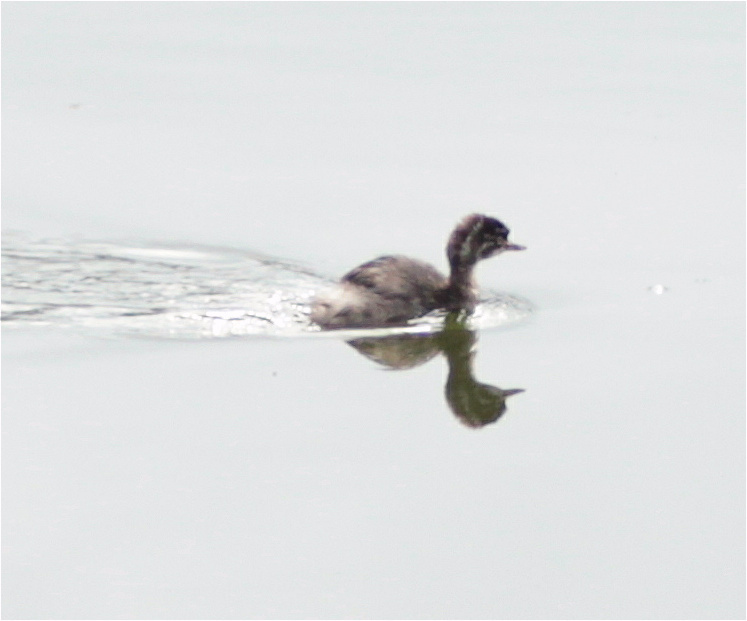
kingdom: Animalia
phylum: Chordata
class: Aves
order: Podicipediformes
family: Podicipedidae
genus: Tachybaptus
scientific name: Tachybaptus dominicus
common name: Least grebe
